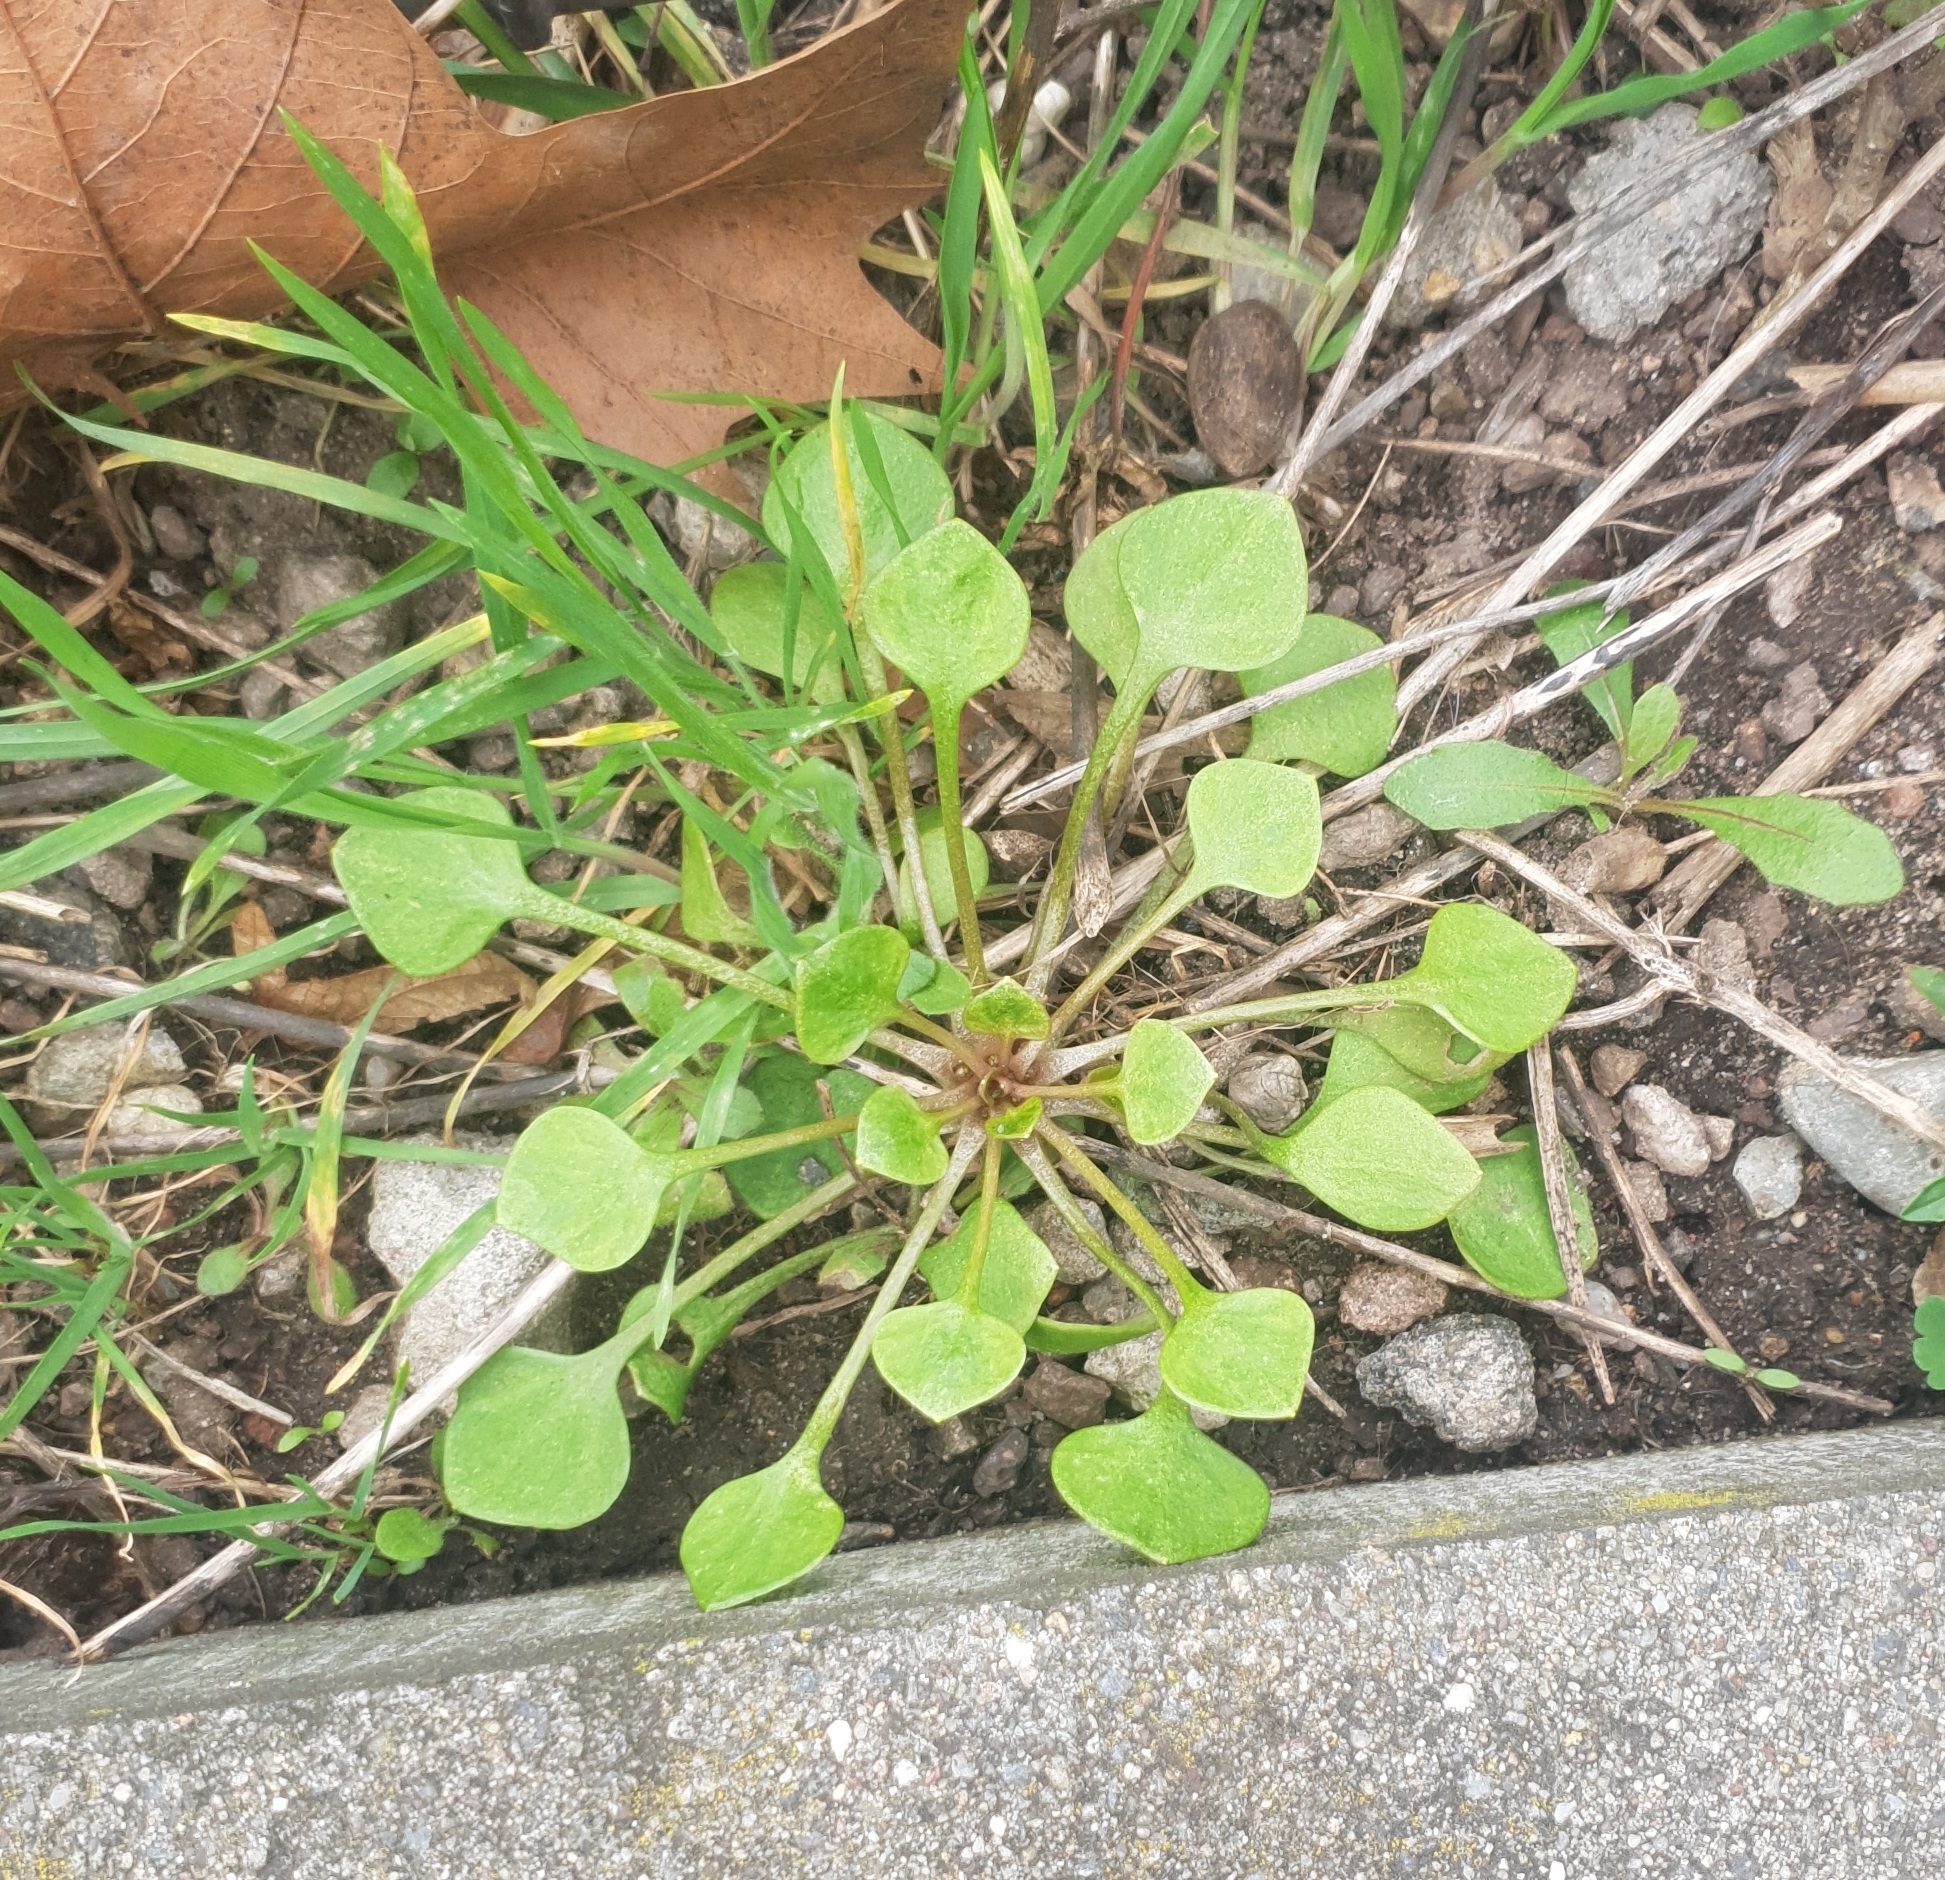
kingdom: Plantae
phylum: Tracheophyta
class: Magnoliopsida
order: Caryophyllales
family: Montiaceae
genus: Claytonia
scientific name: Claytonia perfoliata
